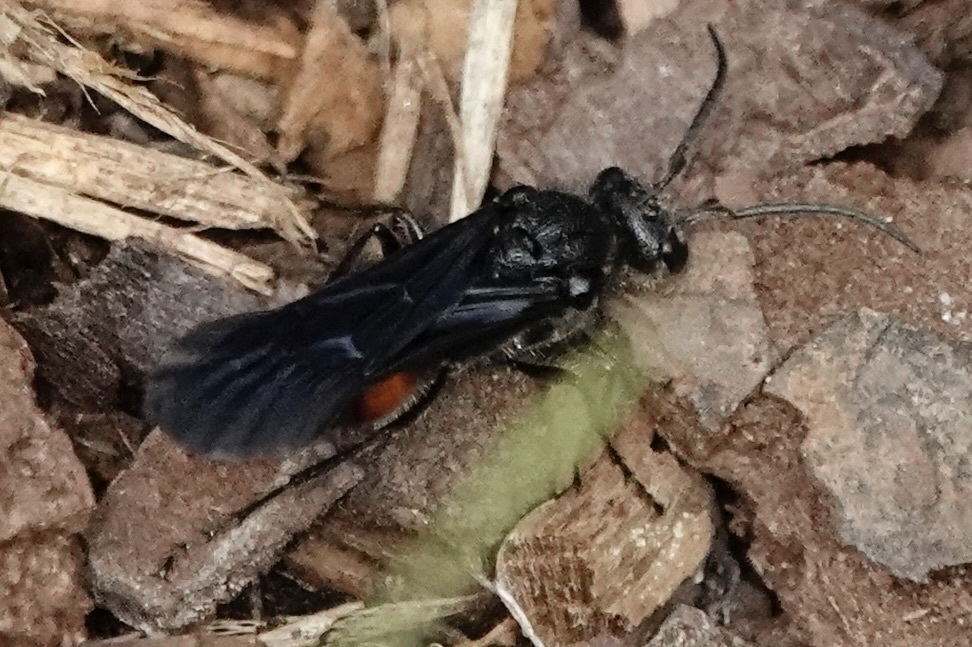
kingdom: Animalia
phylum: Arthropoda
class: Insecta
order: Hymenoptera
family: Mutillidae
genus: Timulla
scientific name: Timulla
